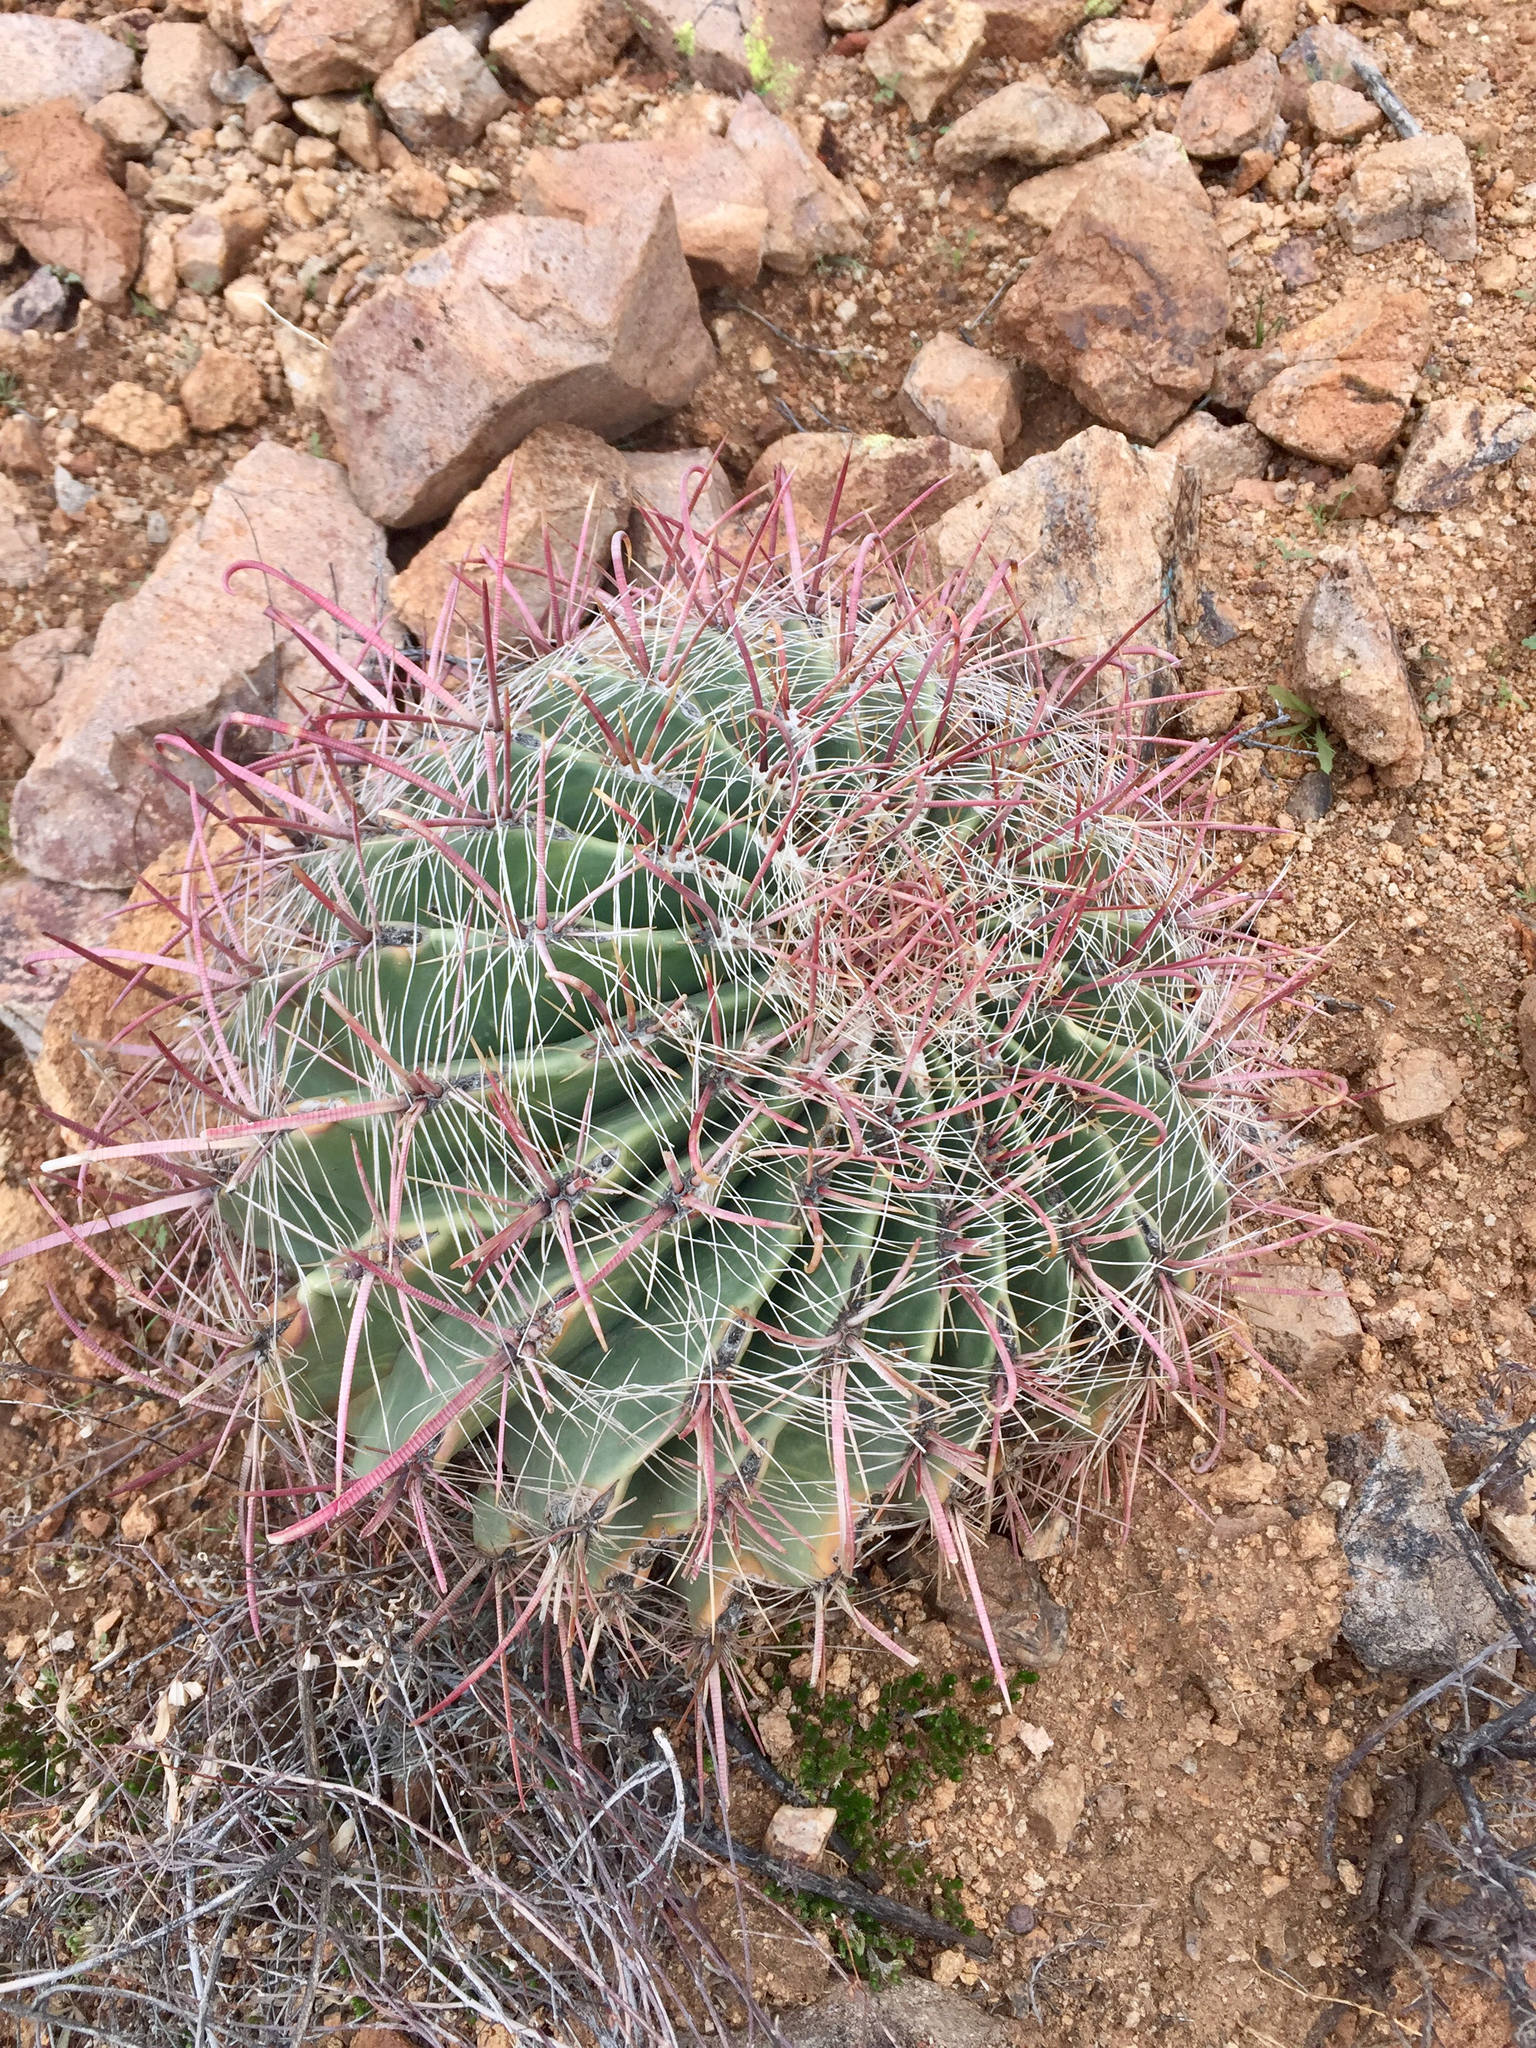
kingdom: Plantae
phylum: Tracheophyta
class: Magnoliopsida
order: Caryophyllales
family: Cactaceae
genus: Ferocactus
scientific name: Ferocactus wislizeni
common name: Candy barrel cactus
